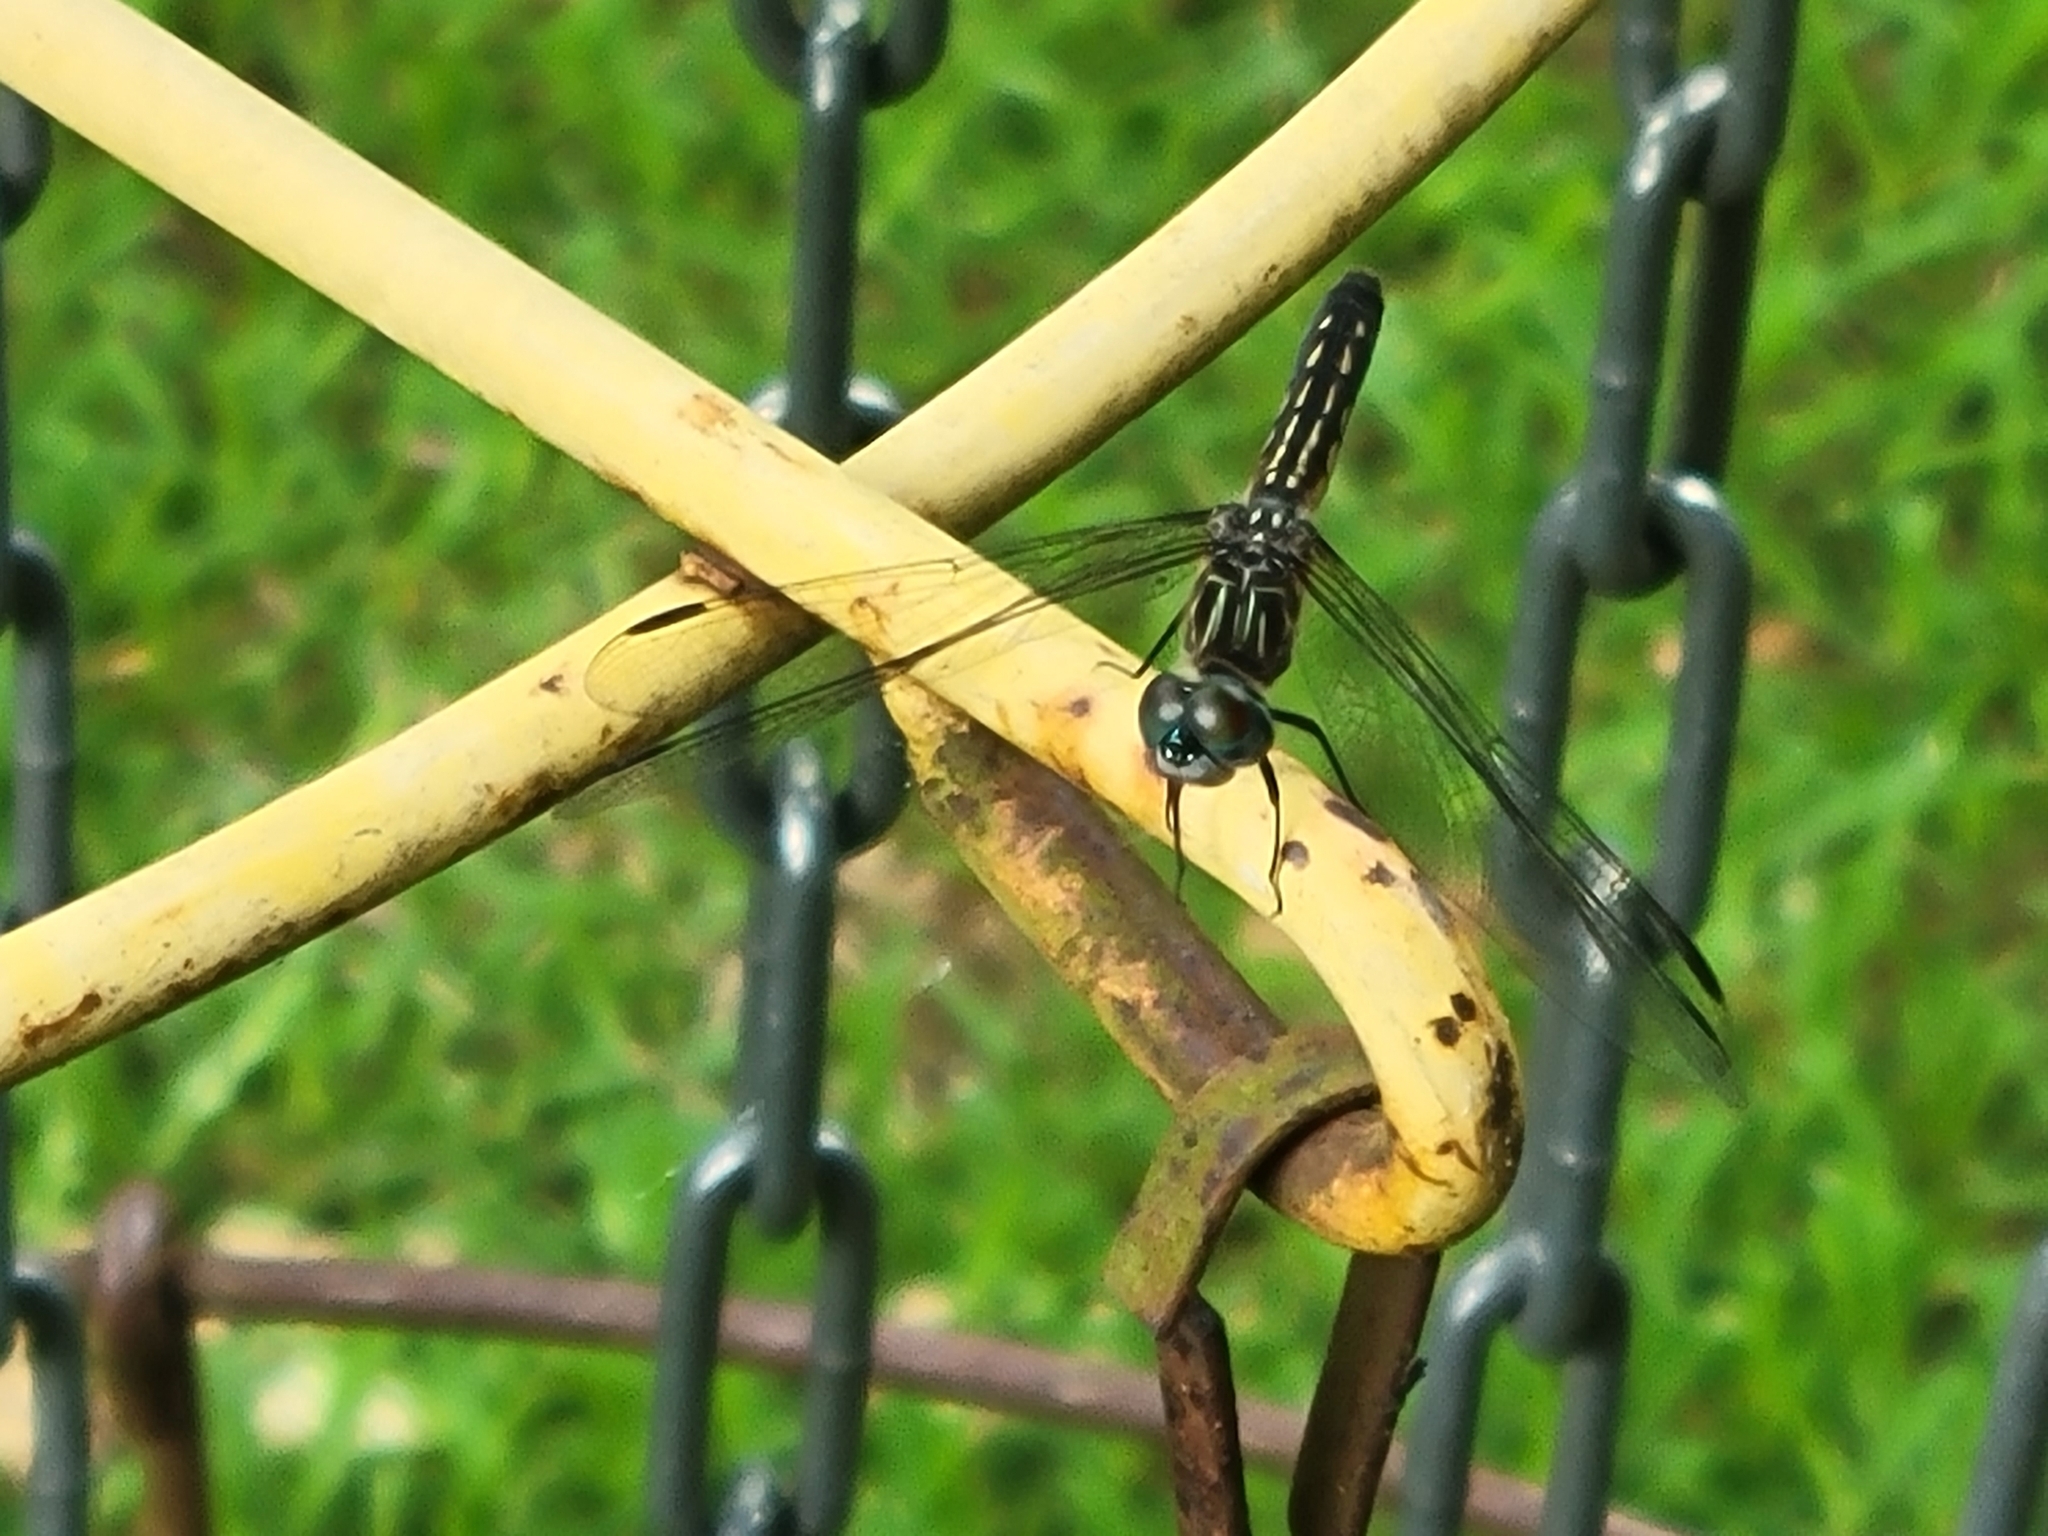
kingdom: Animalia
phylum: Arthropoda
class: Insecta
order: Odonata
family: Libellulidae
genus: Pachydiplax
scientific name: Pachydiplax longipennis
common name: Blue dasher
